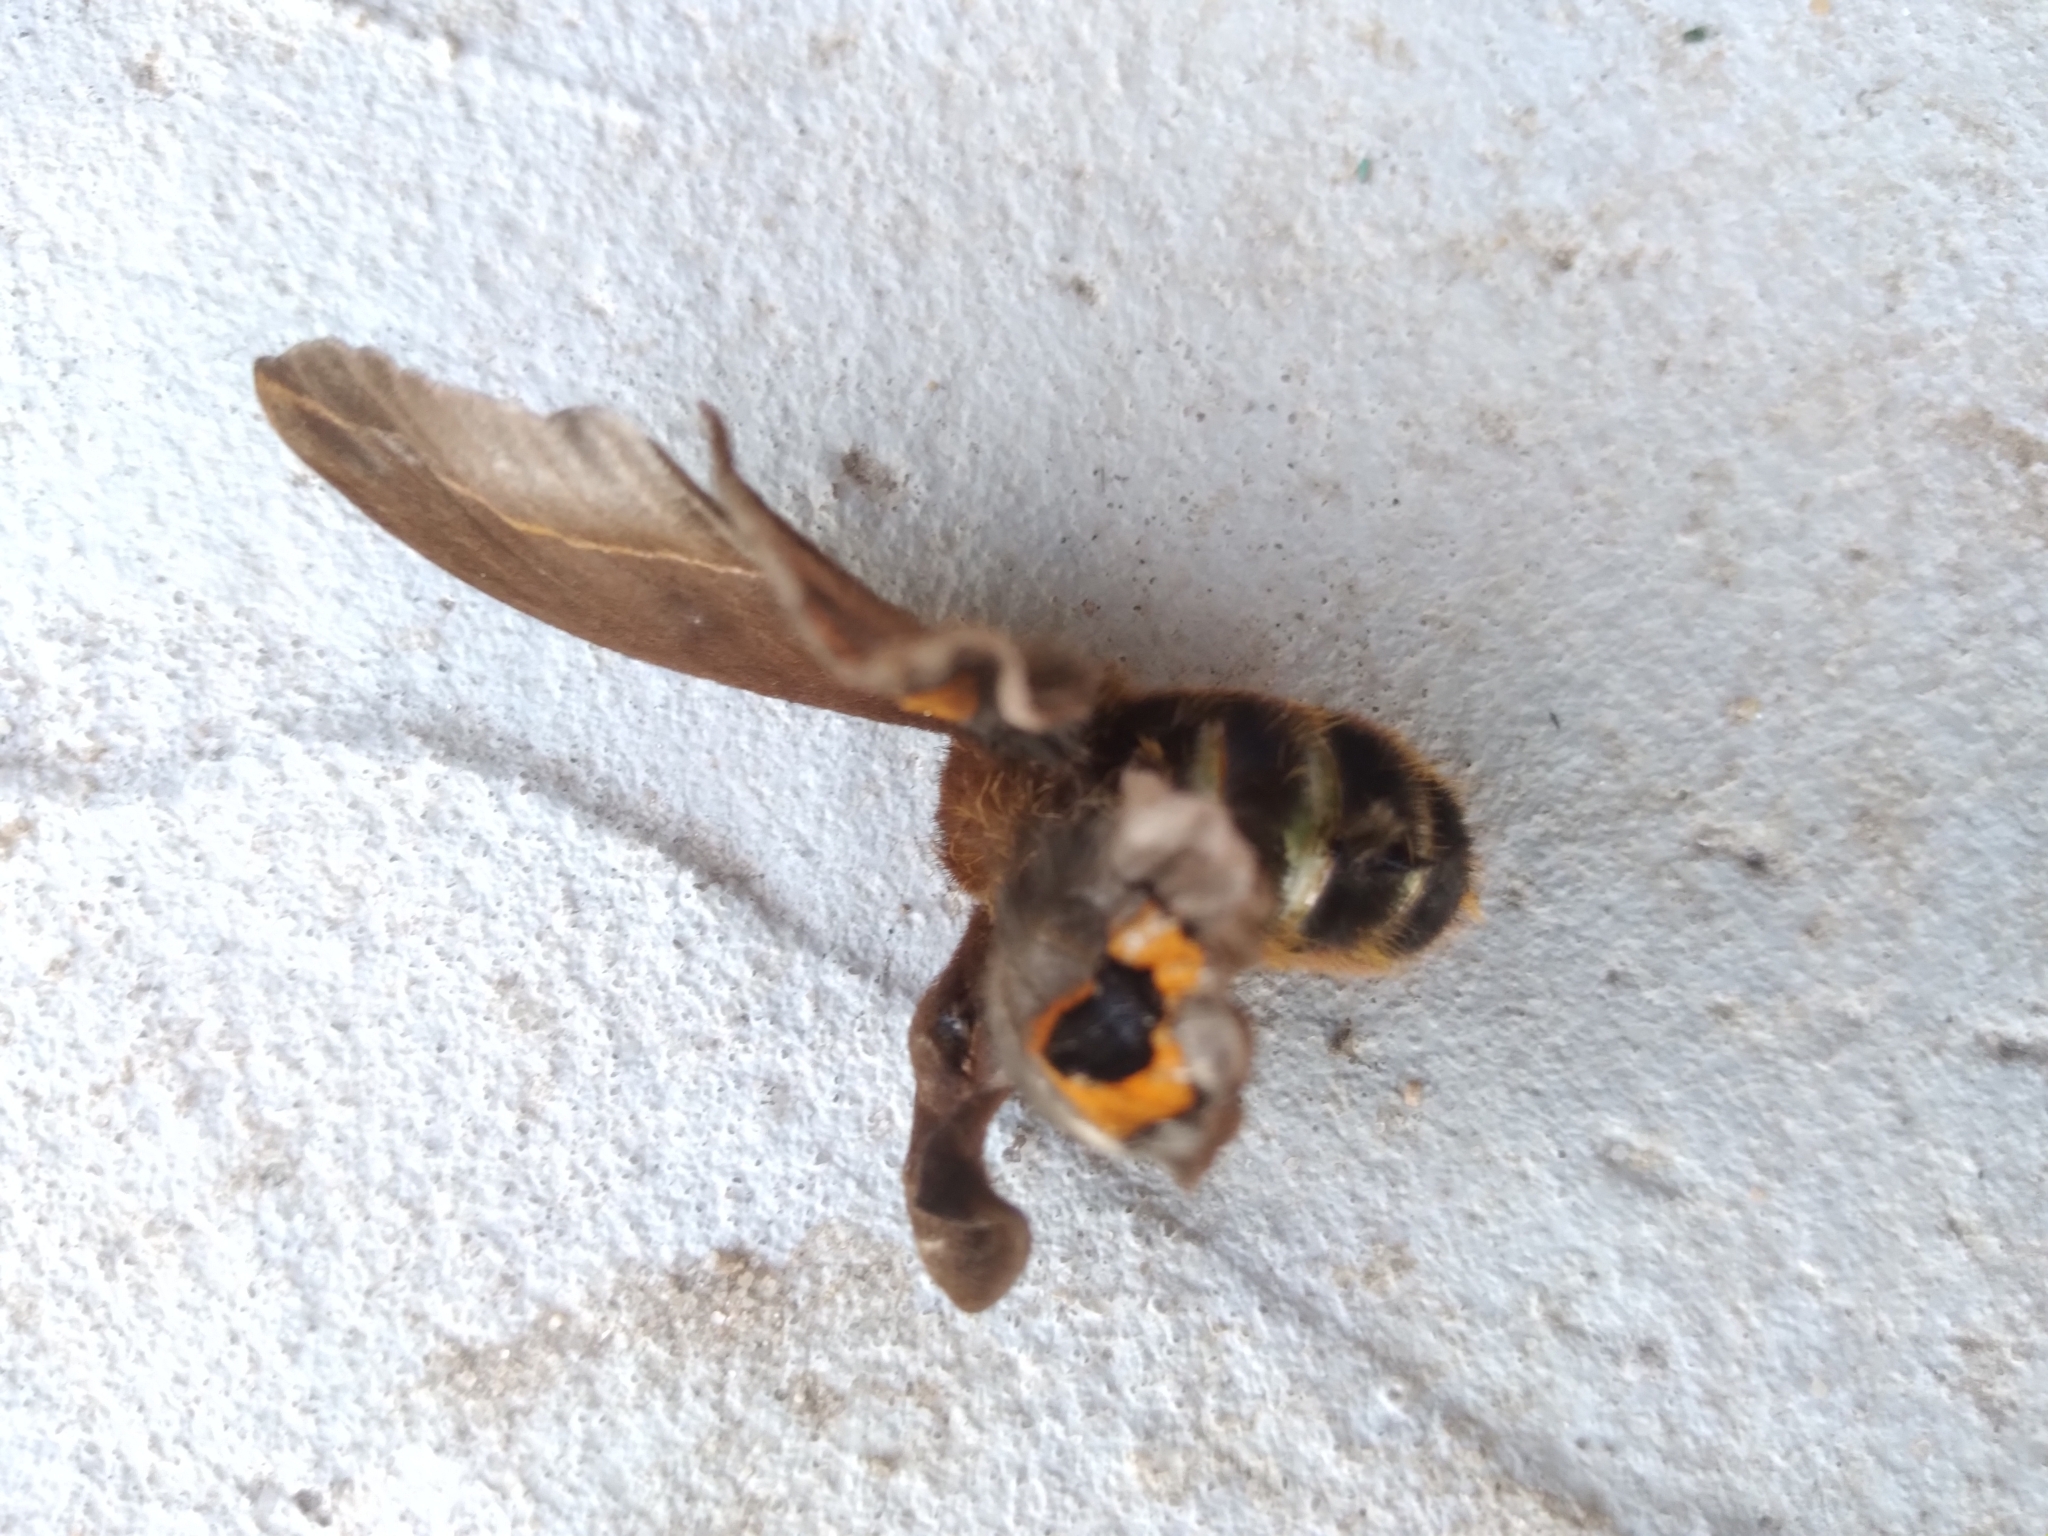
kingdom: Animalia
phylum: Arthropoda
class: Insecta
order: Lepidoptera
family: Saturniidae
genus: Automeris
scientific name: Automeris naranja
